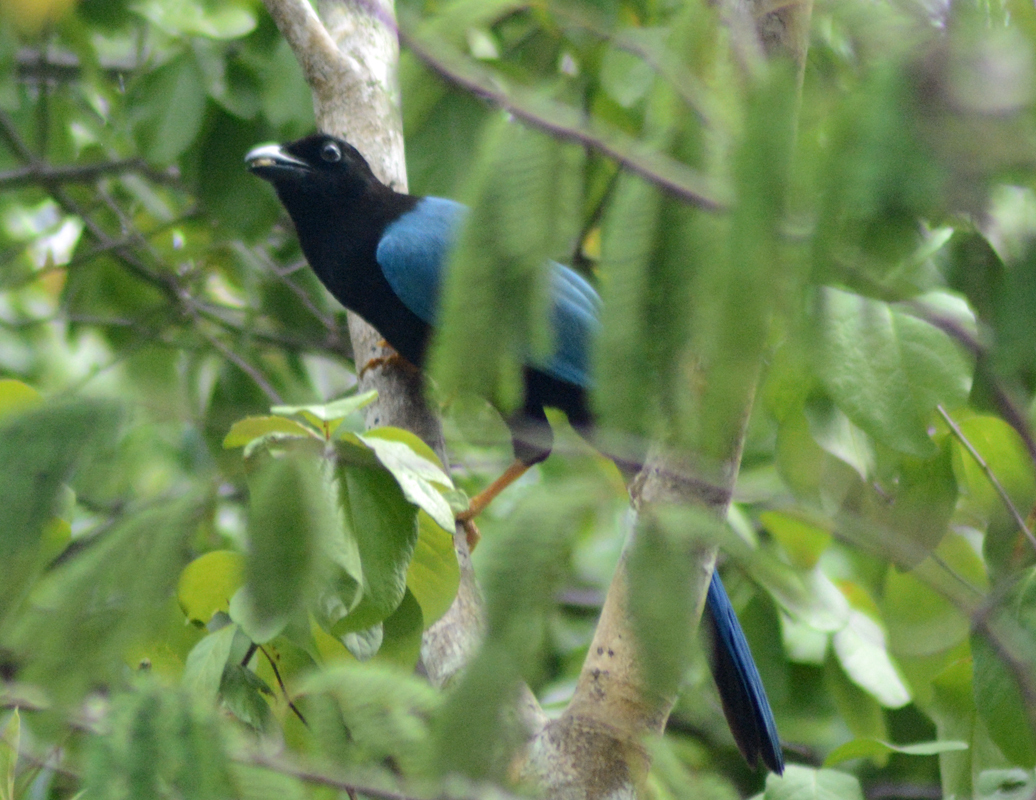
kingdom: Animalia
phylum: Chordata
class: Aves
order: Passeriformes
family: Corvidae
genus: Cyanocorax
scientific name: Cyanocorax yucatanicus
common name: Yucatan jay
